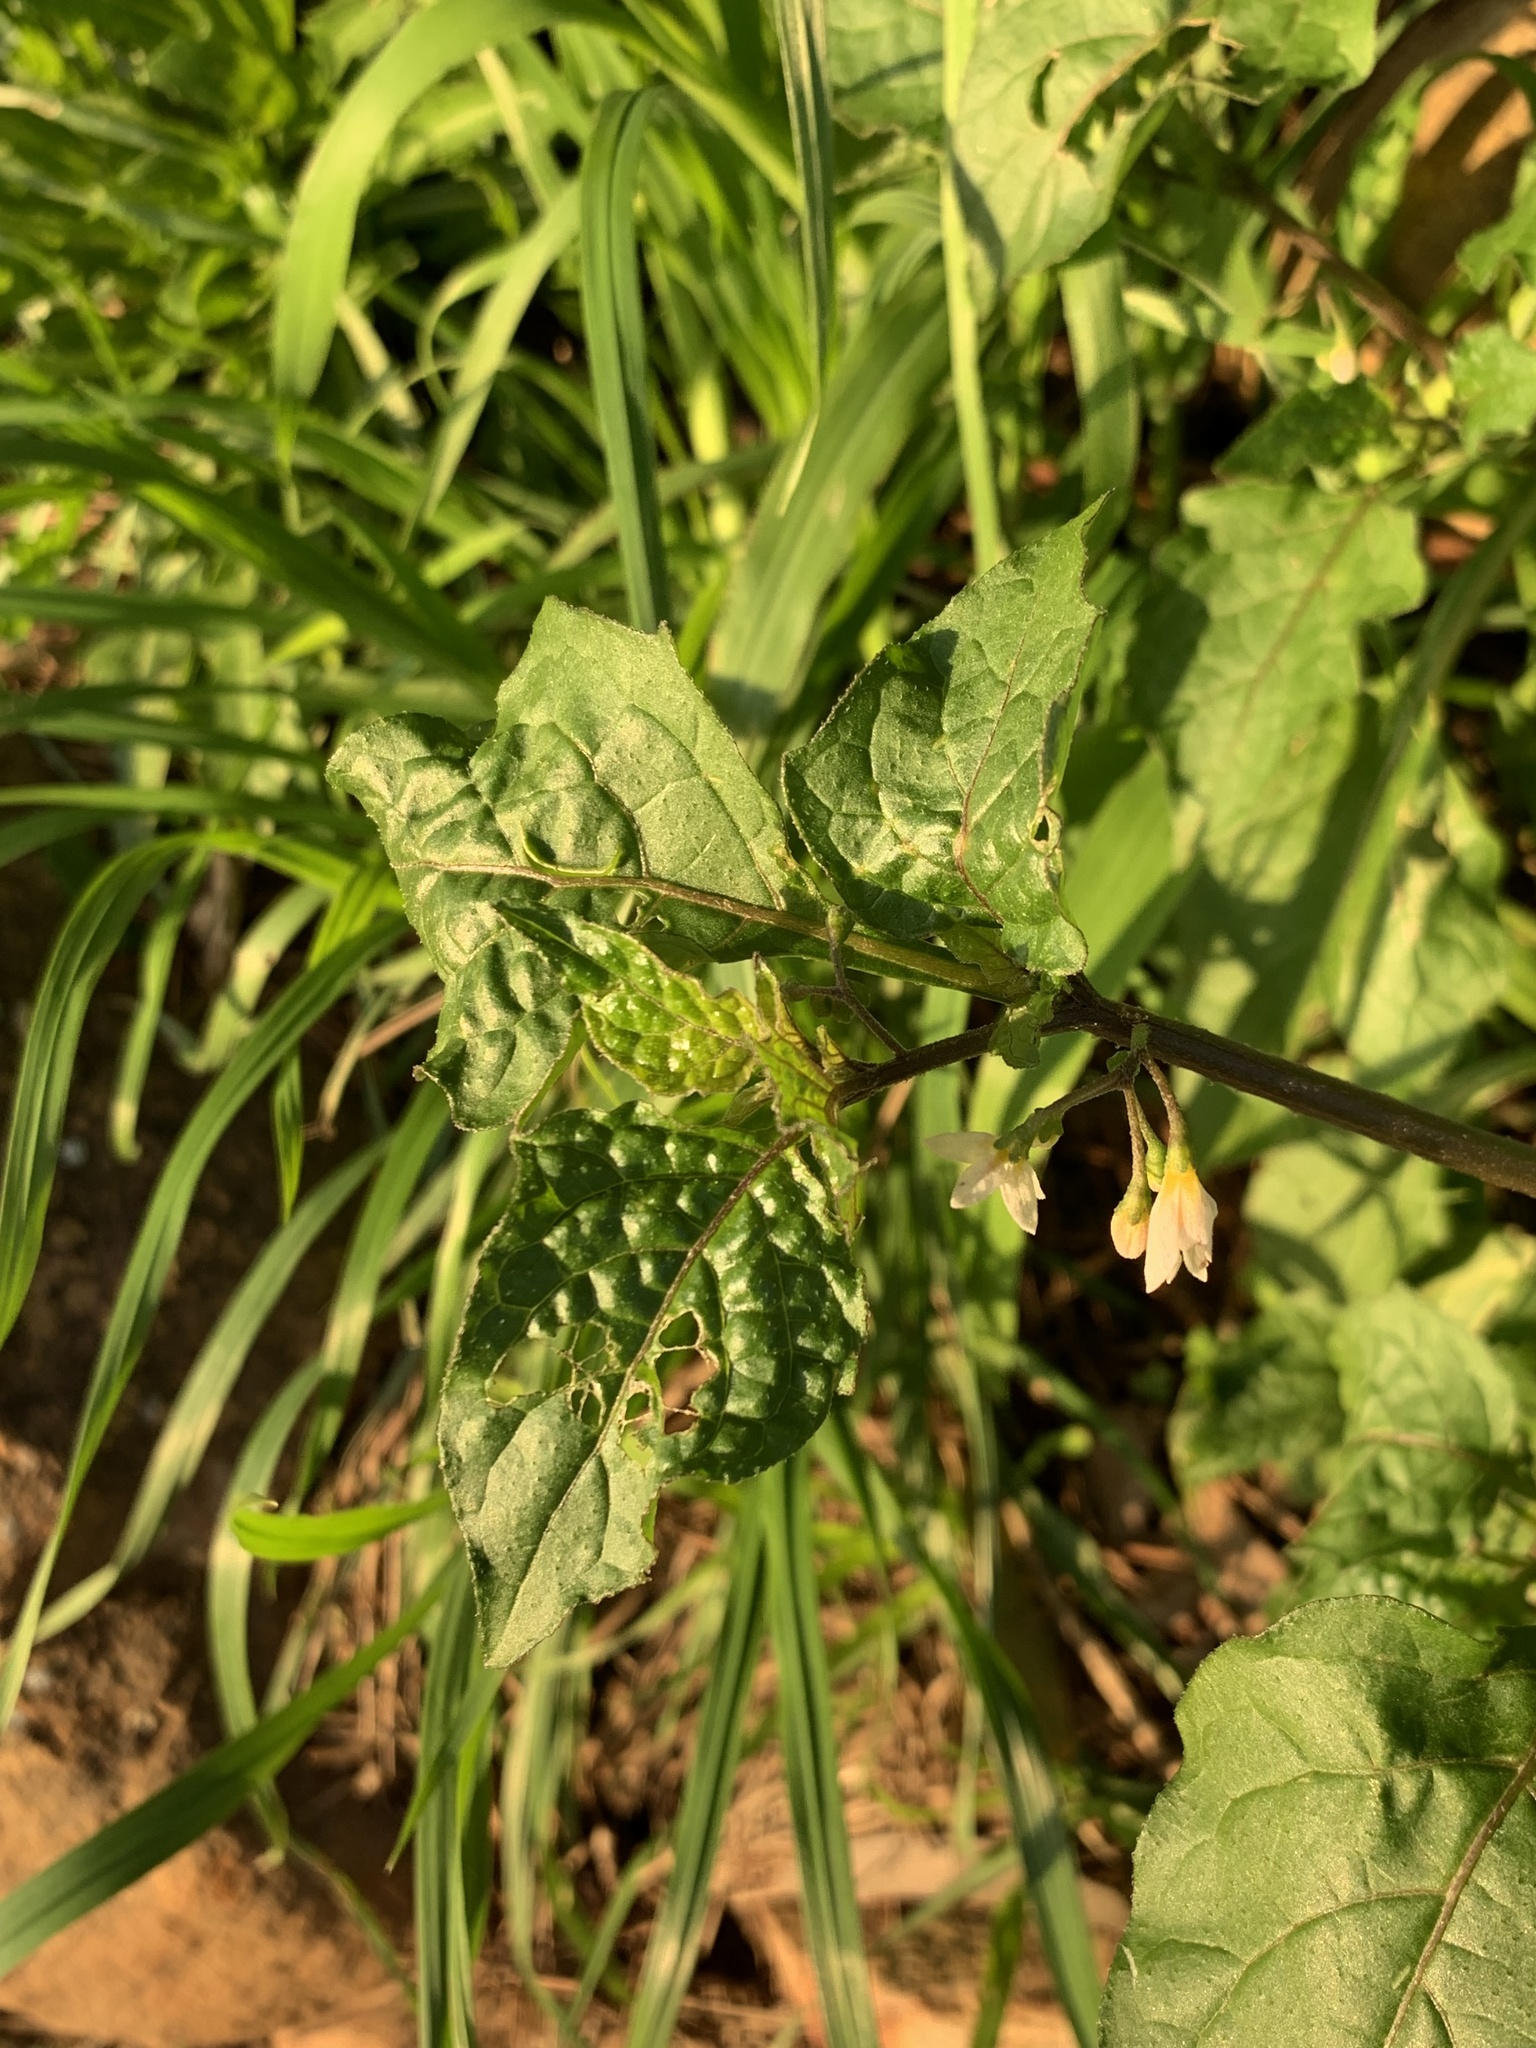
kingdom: Plantae
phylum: Tracheophyta
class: Magnoliopsida
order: Solanales
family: Solanaceae
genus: Solanum
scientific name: Solanum nigrum
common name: Black nightshade
